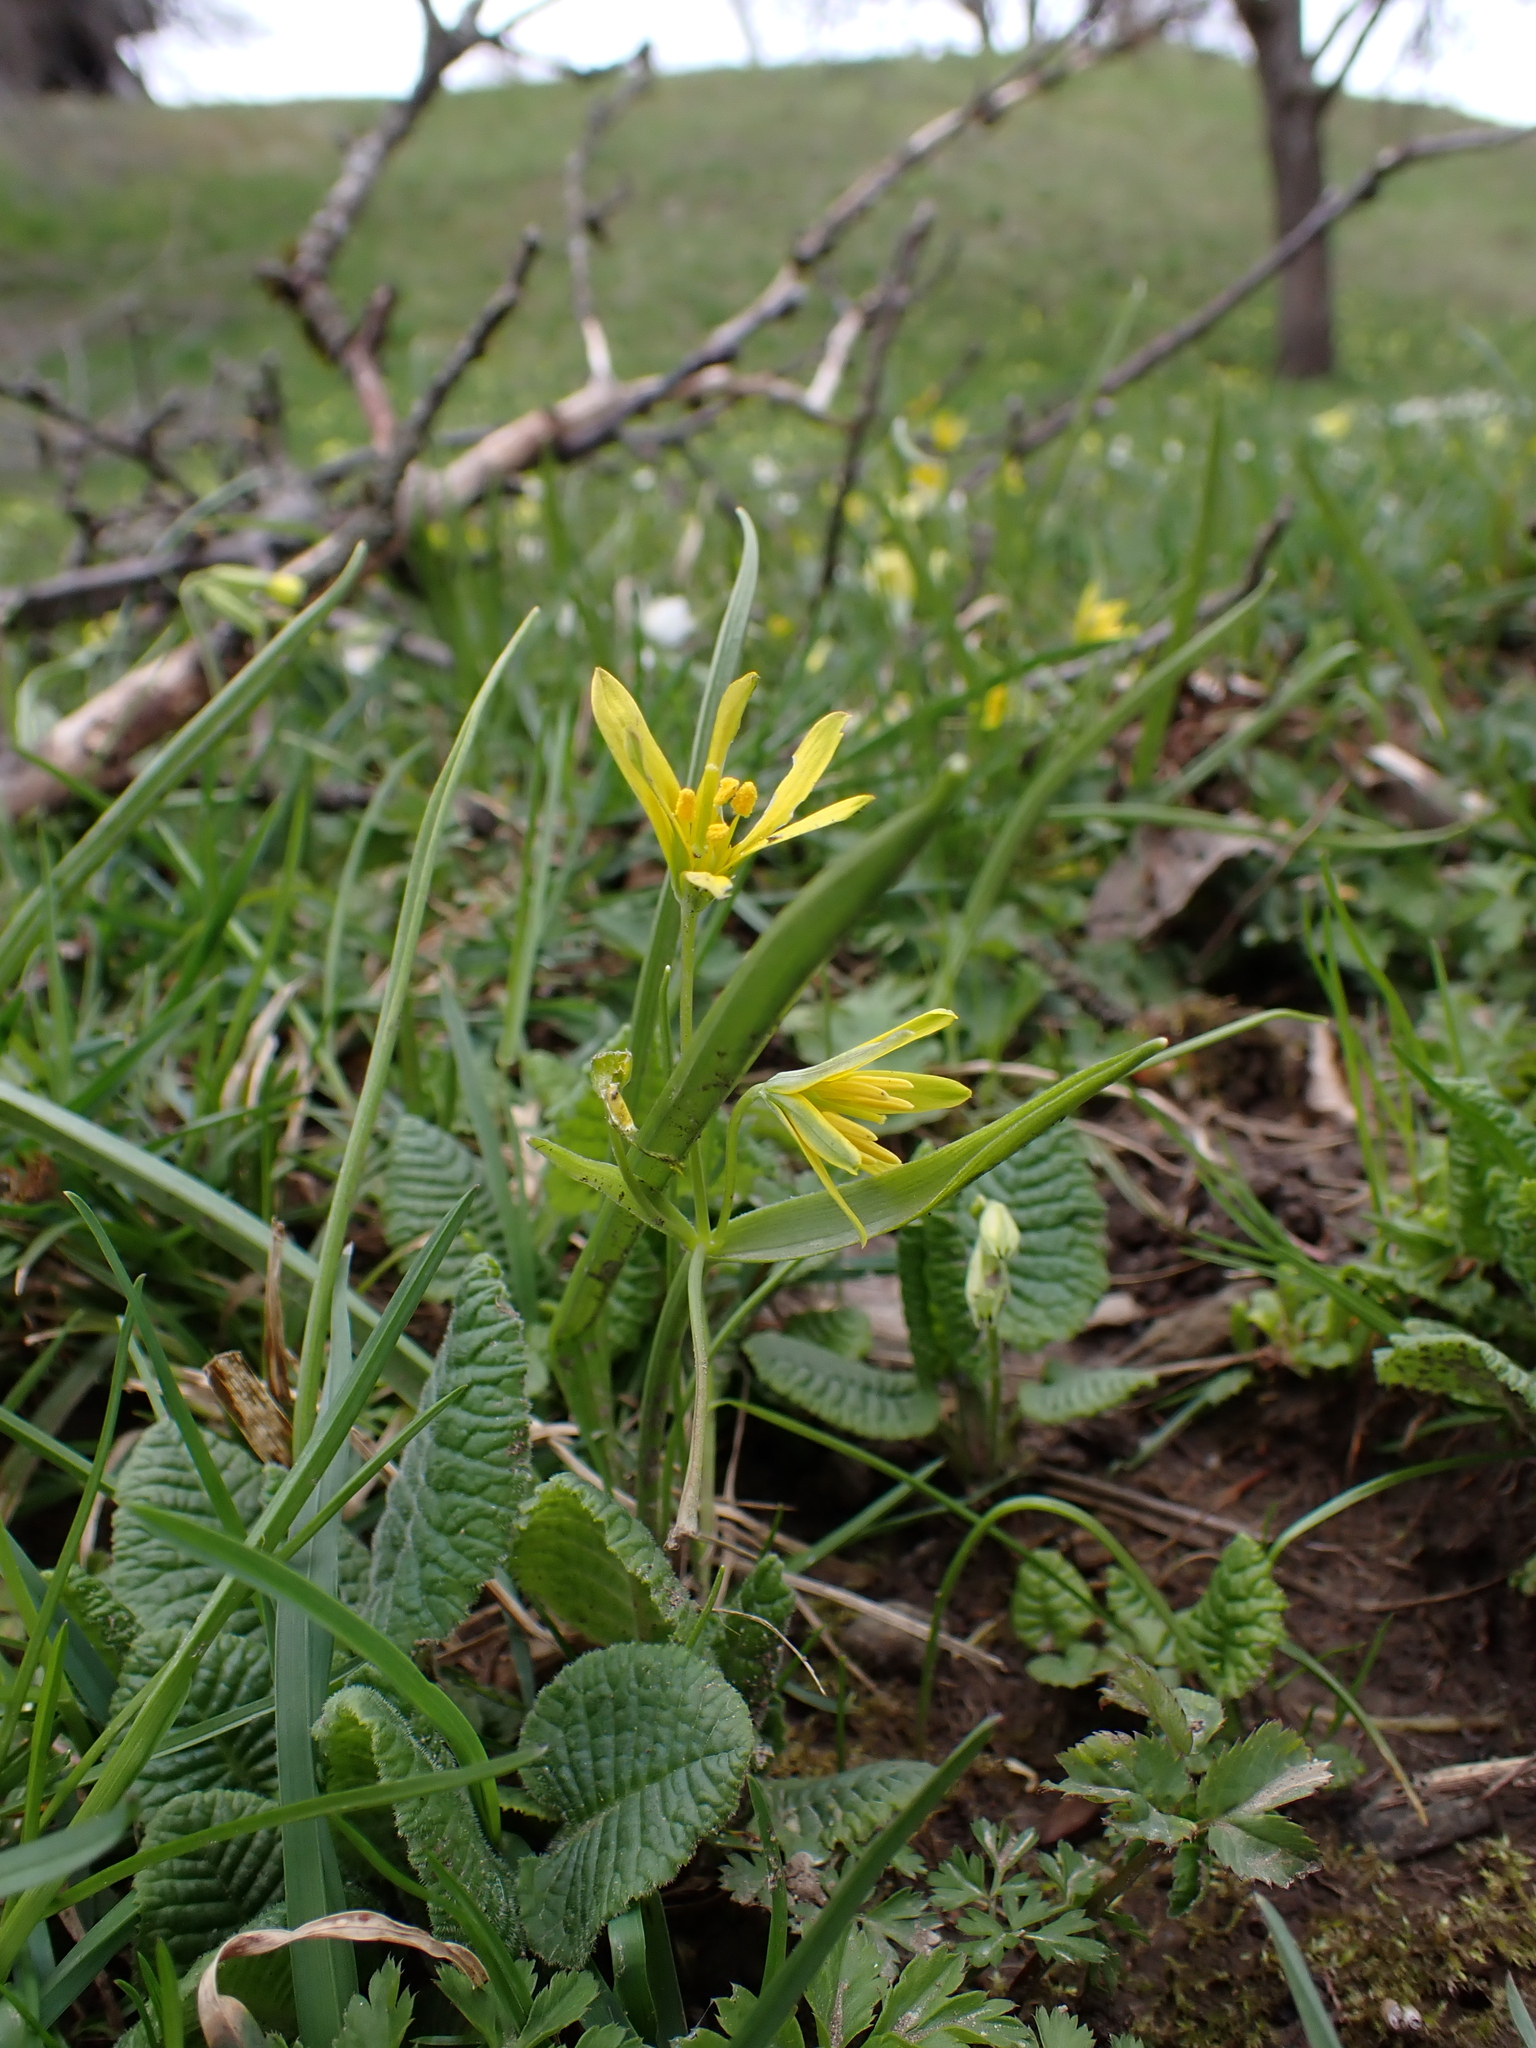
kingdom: Plantae
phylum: Tracheophyta
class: Liliopsida
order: Liliales
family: Liliaceae
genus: Gagea
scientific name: Gagea lutea
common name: Yellow star-of-bethlehem
